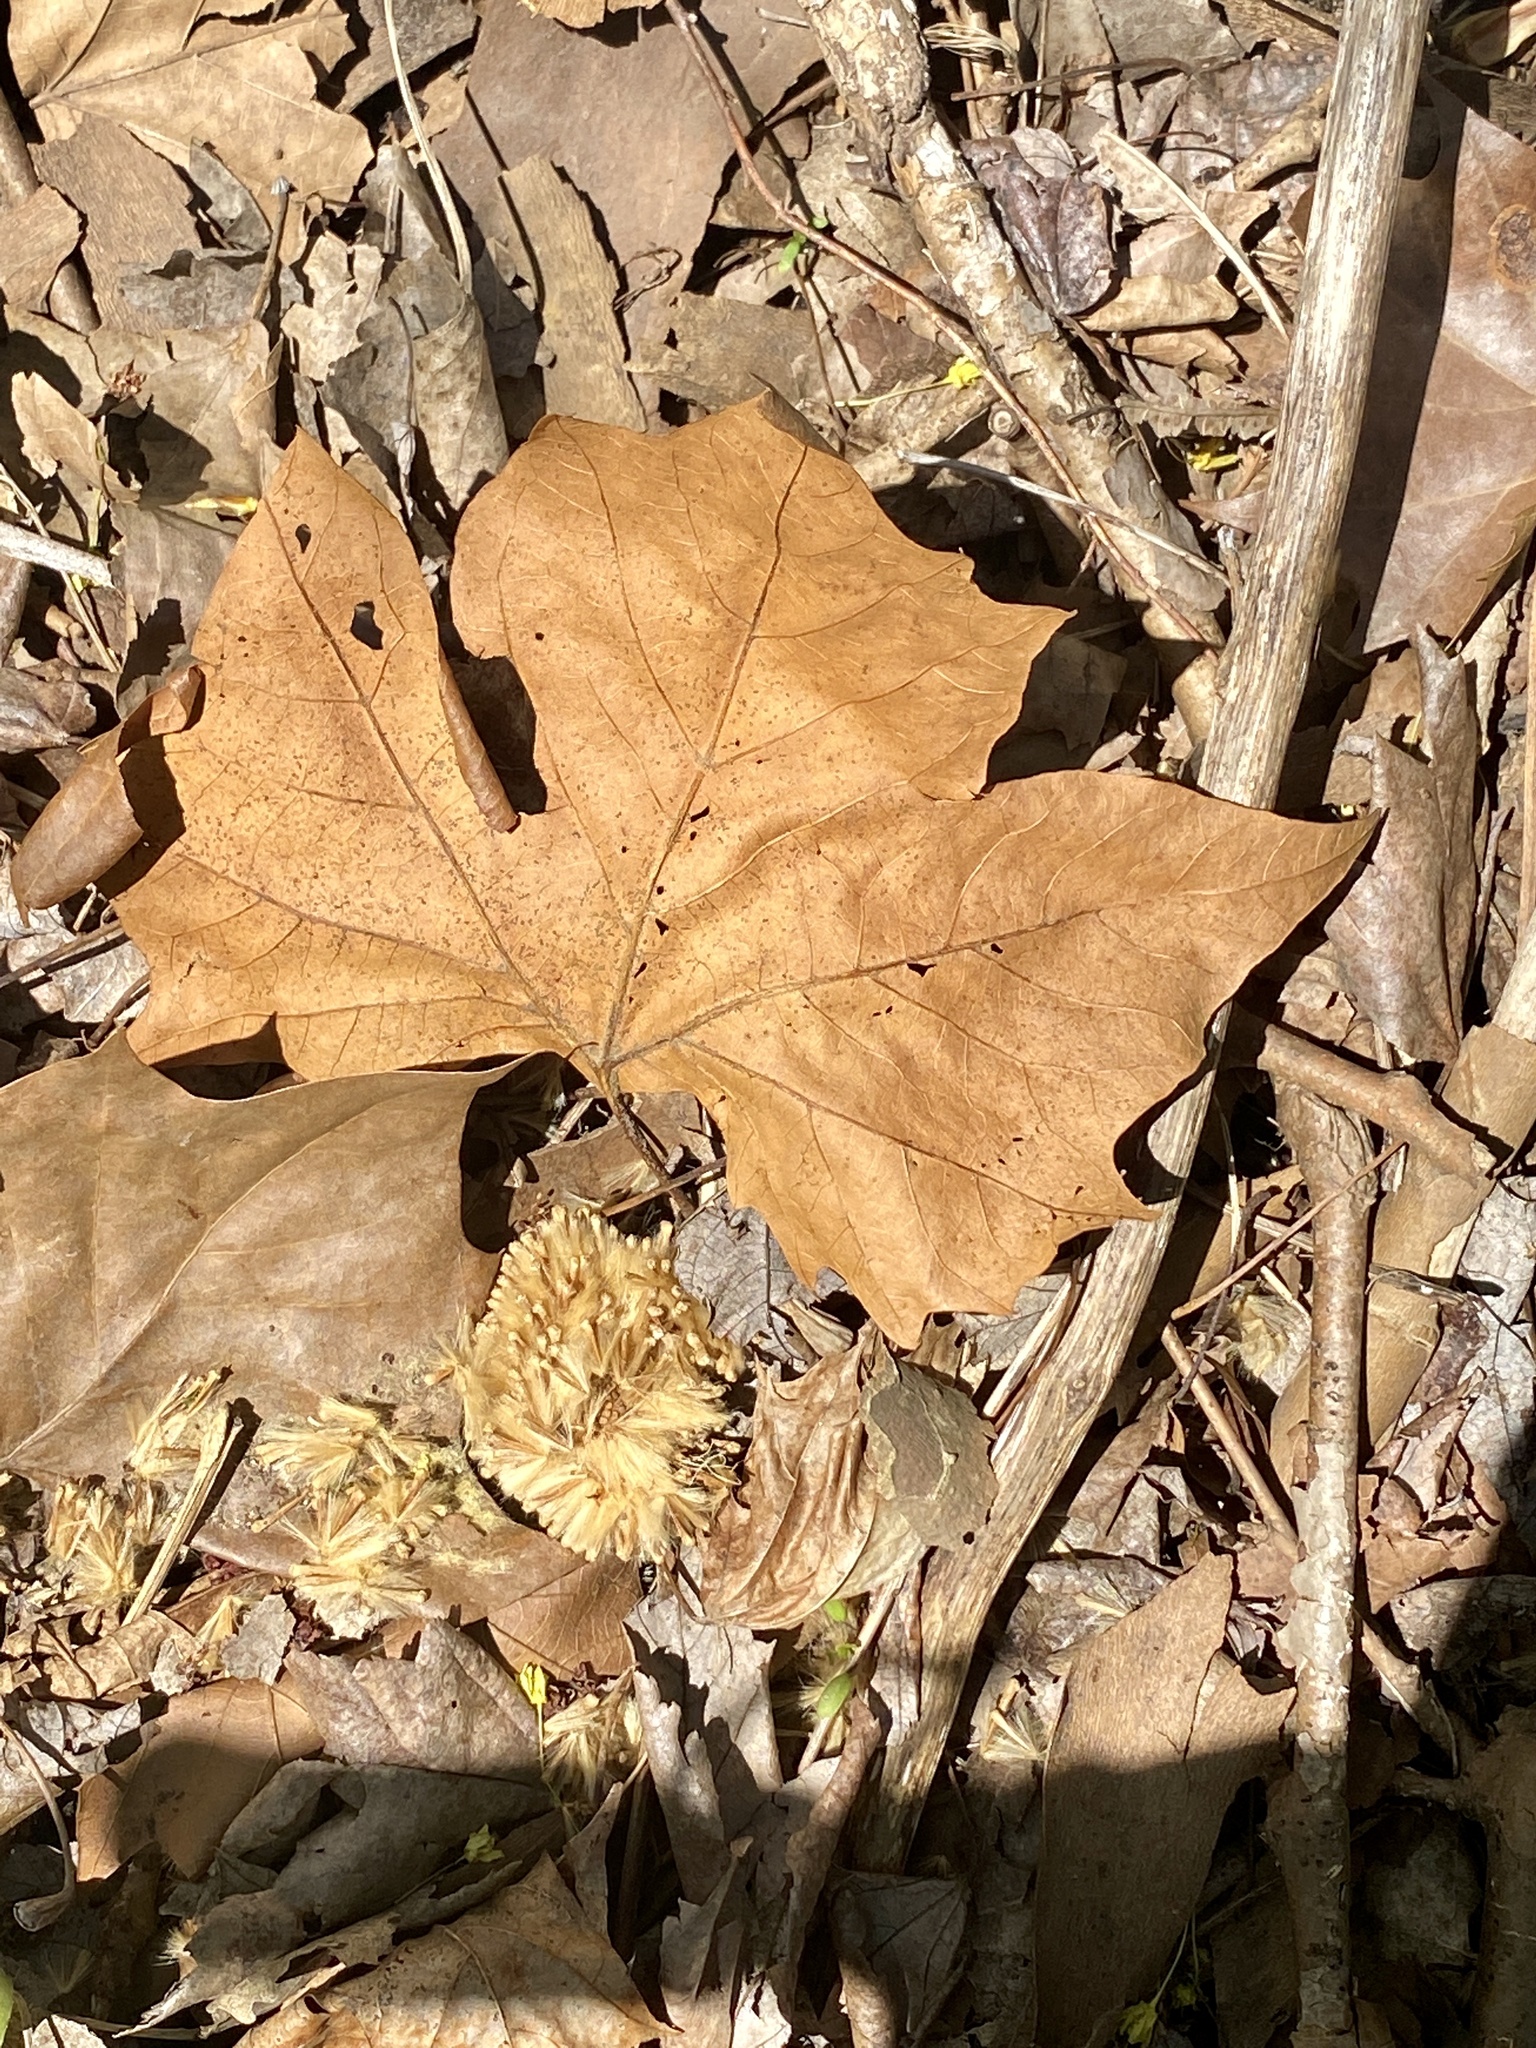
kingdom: Plantae
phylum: Tracheophyta
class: Magnoliopsida
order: Proteales
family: Platanaceae
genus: Platanus
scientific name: Platanus occidentalis
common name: American sycamore
